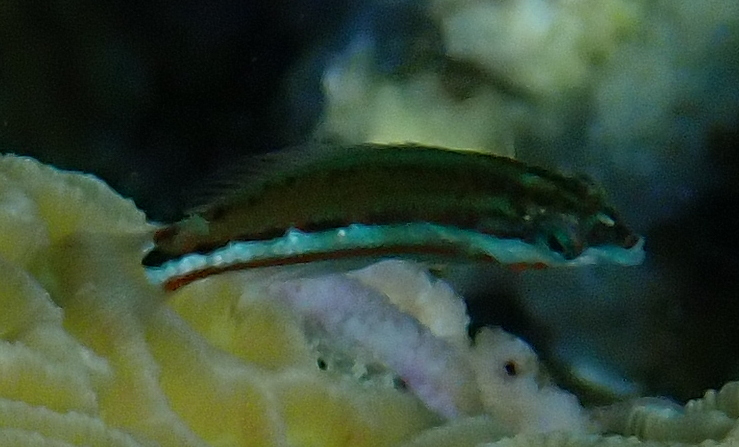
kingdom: Animalia
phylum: Chordata
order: Perciformes
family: Labridae
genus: Thalassoma
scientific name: Thalassoma rueppellii
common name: Klunzinger's wrasse
